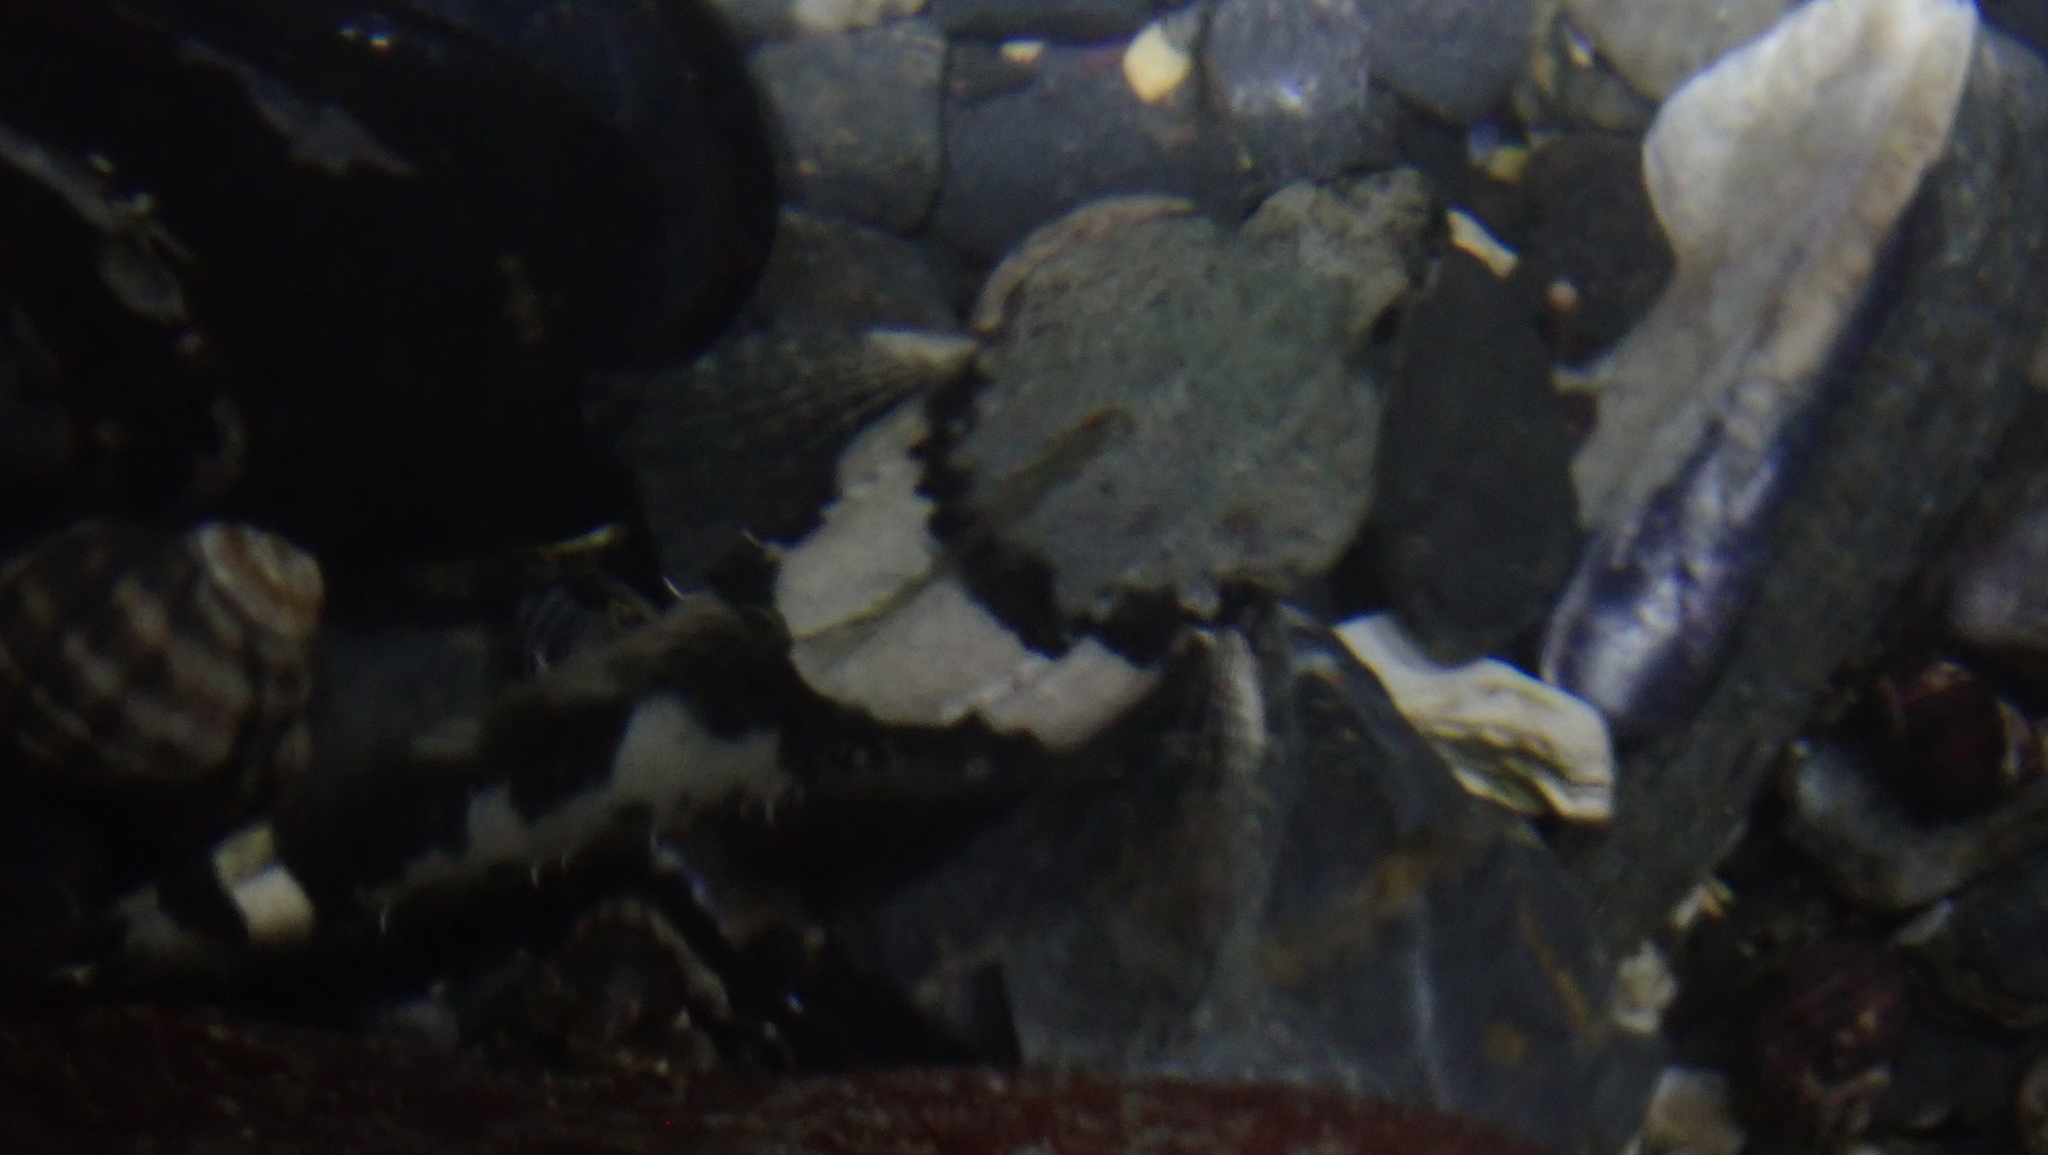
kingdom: Animalia
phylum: Chordata
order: Scorpaeniformes
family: Cottidae
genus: Oligocottus
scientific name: Oligocottus maculosus
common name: Tidepool sculpin
